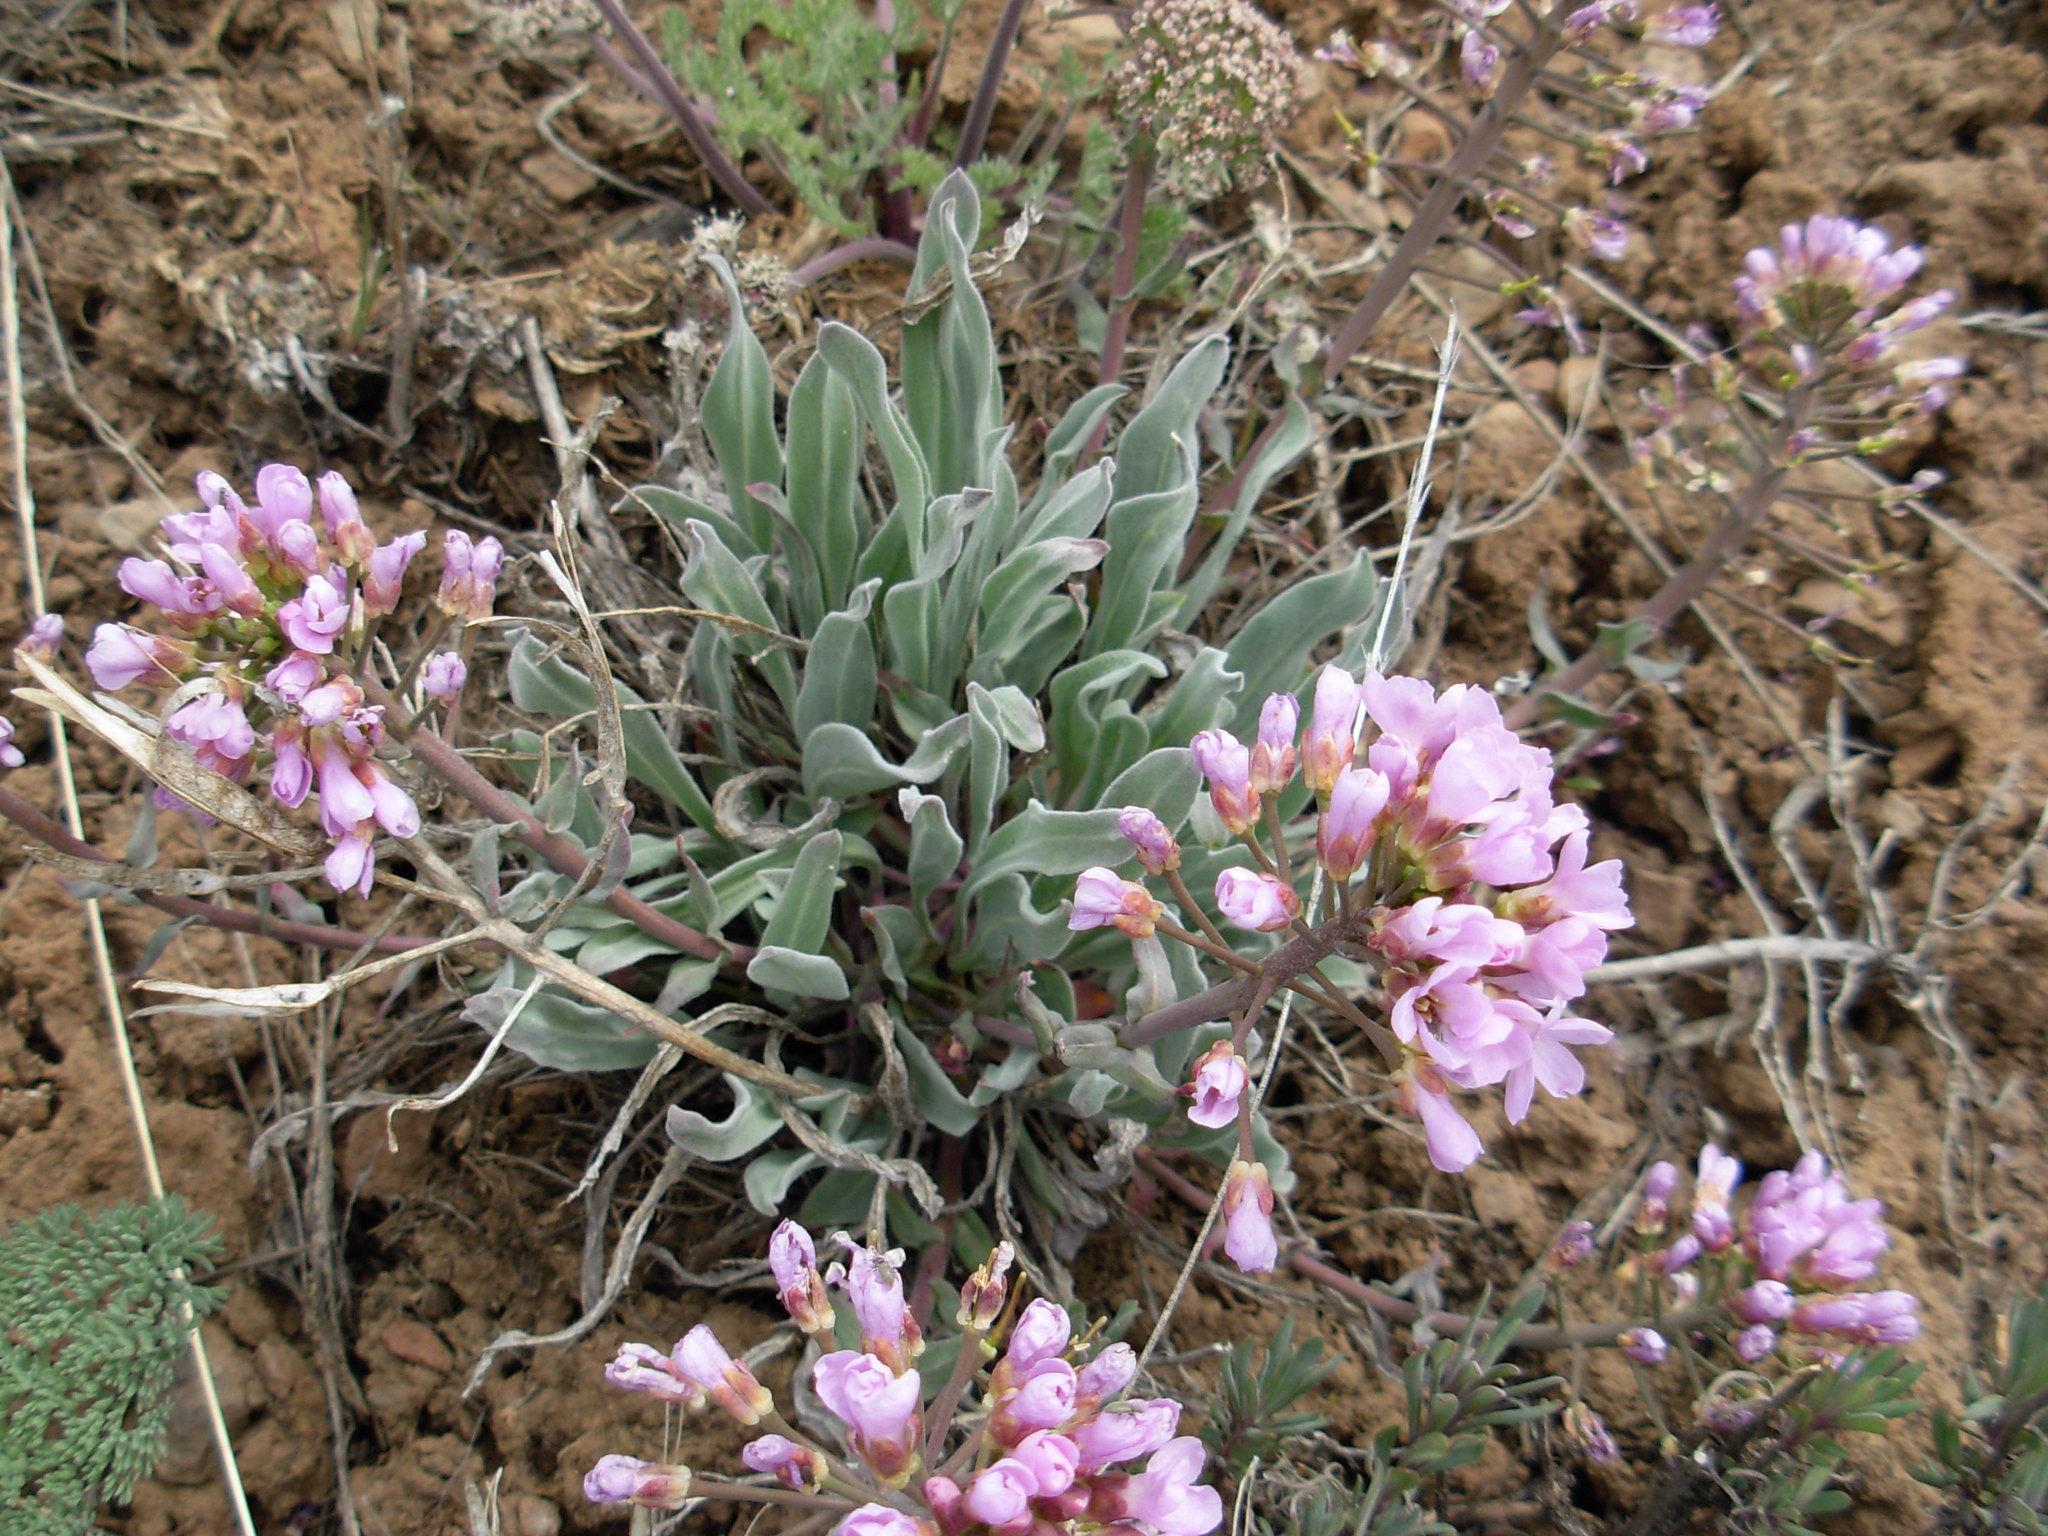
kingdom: Plantae
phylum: Tracheophyta
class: Magnoliopsida
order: Brassicales
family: Brassicaceae
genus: Phoenicaulis
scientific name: Phoenicaulis cheiranthoides
